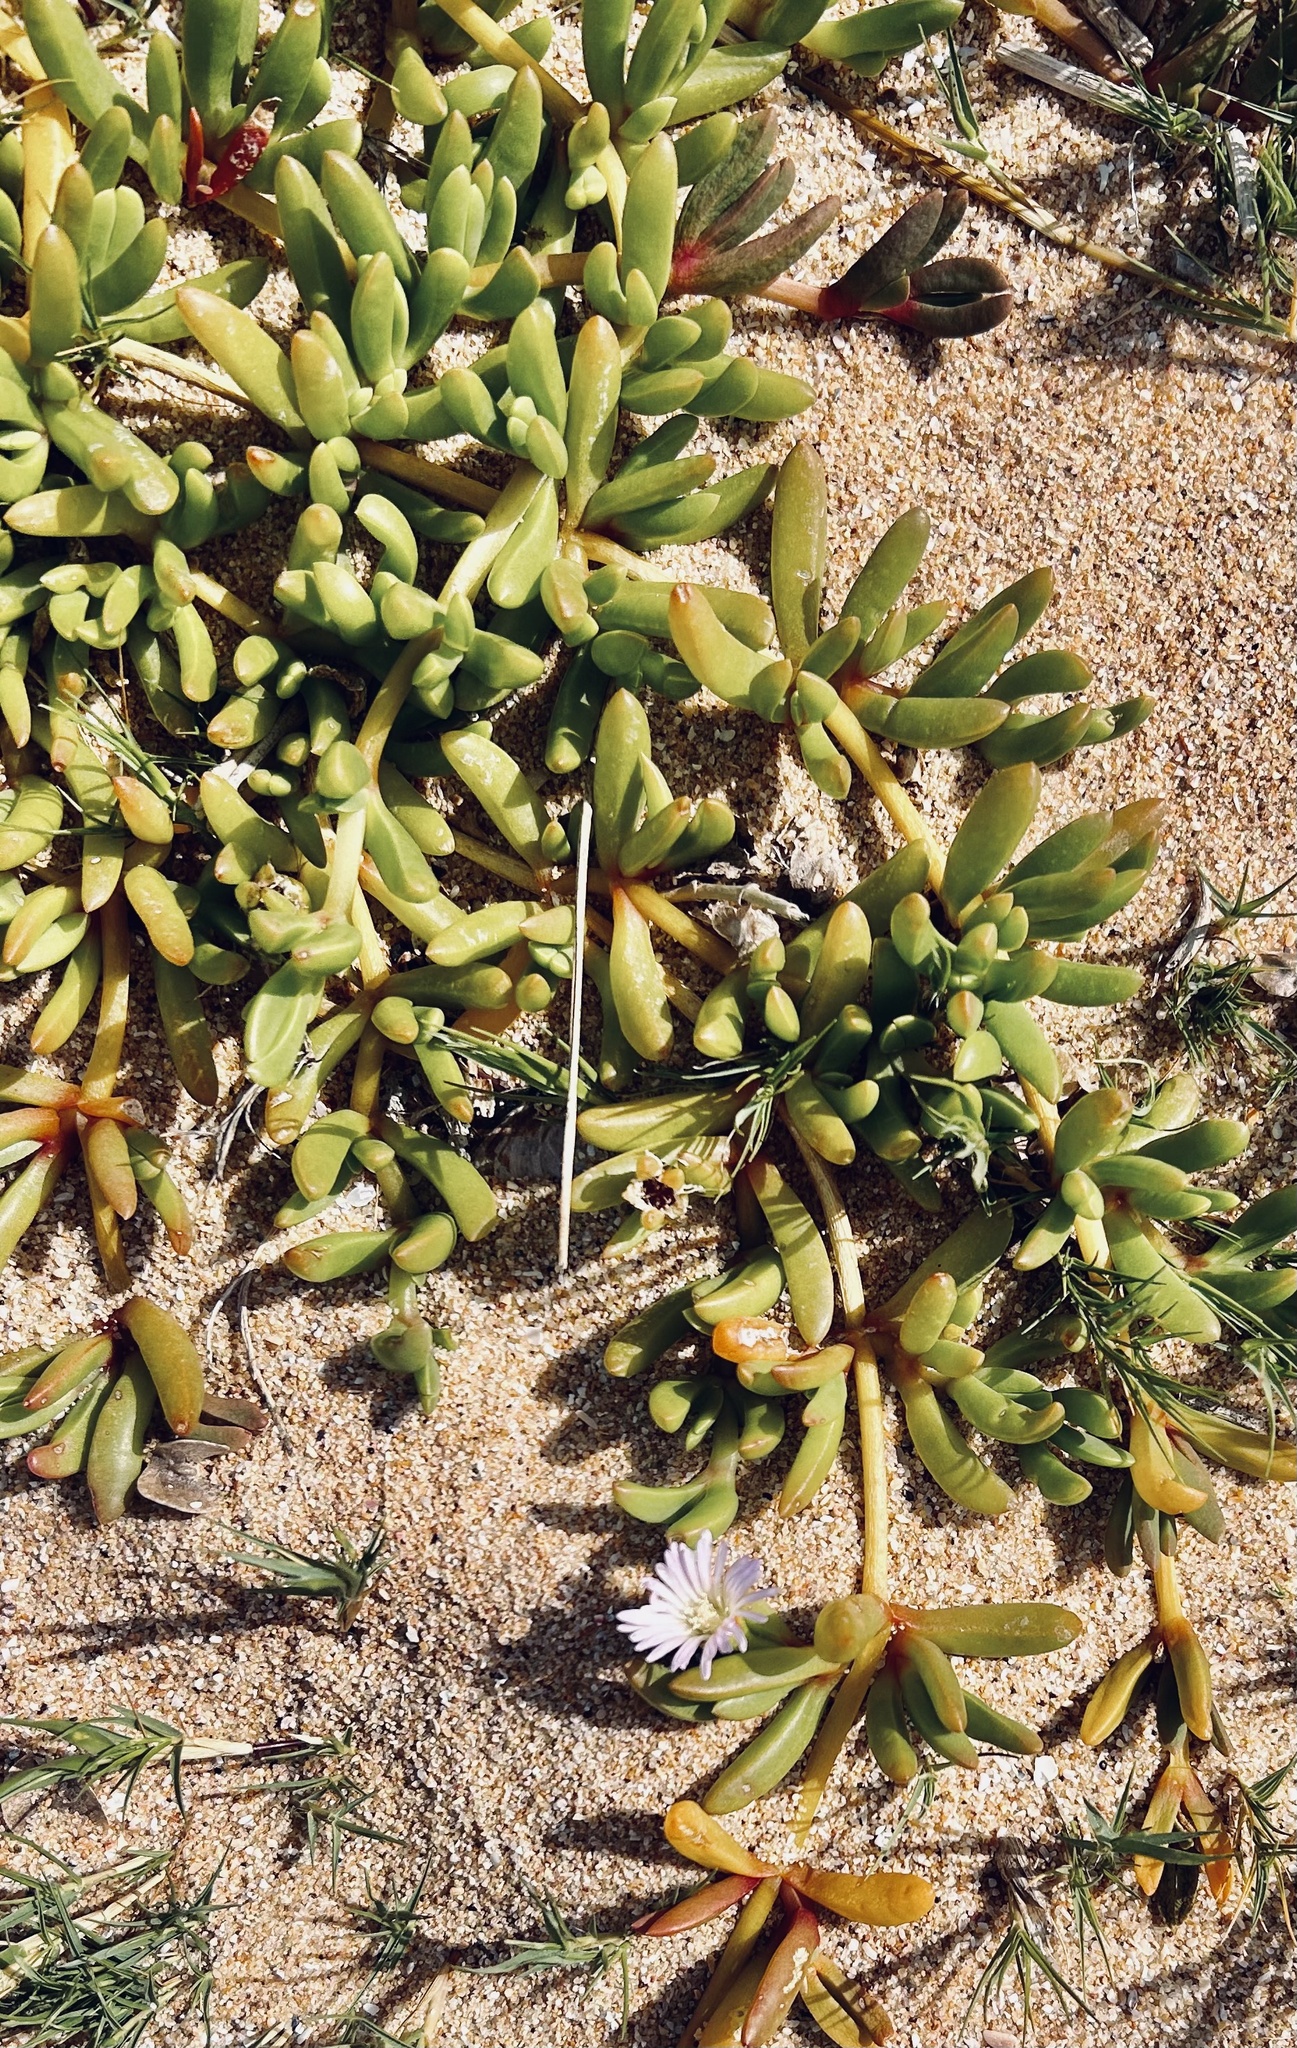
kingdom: Plantae
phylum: Tracheophyta
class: Magnoliopsida
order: Caryophyllales
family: Aizoaceae
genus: Disphyma
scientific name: Disphyma crassifolium
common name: Purple dewplant
